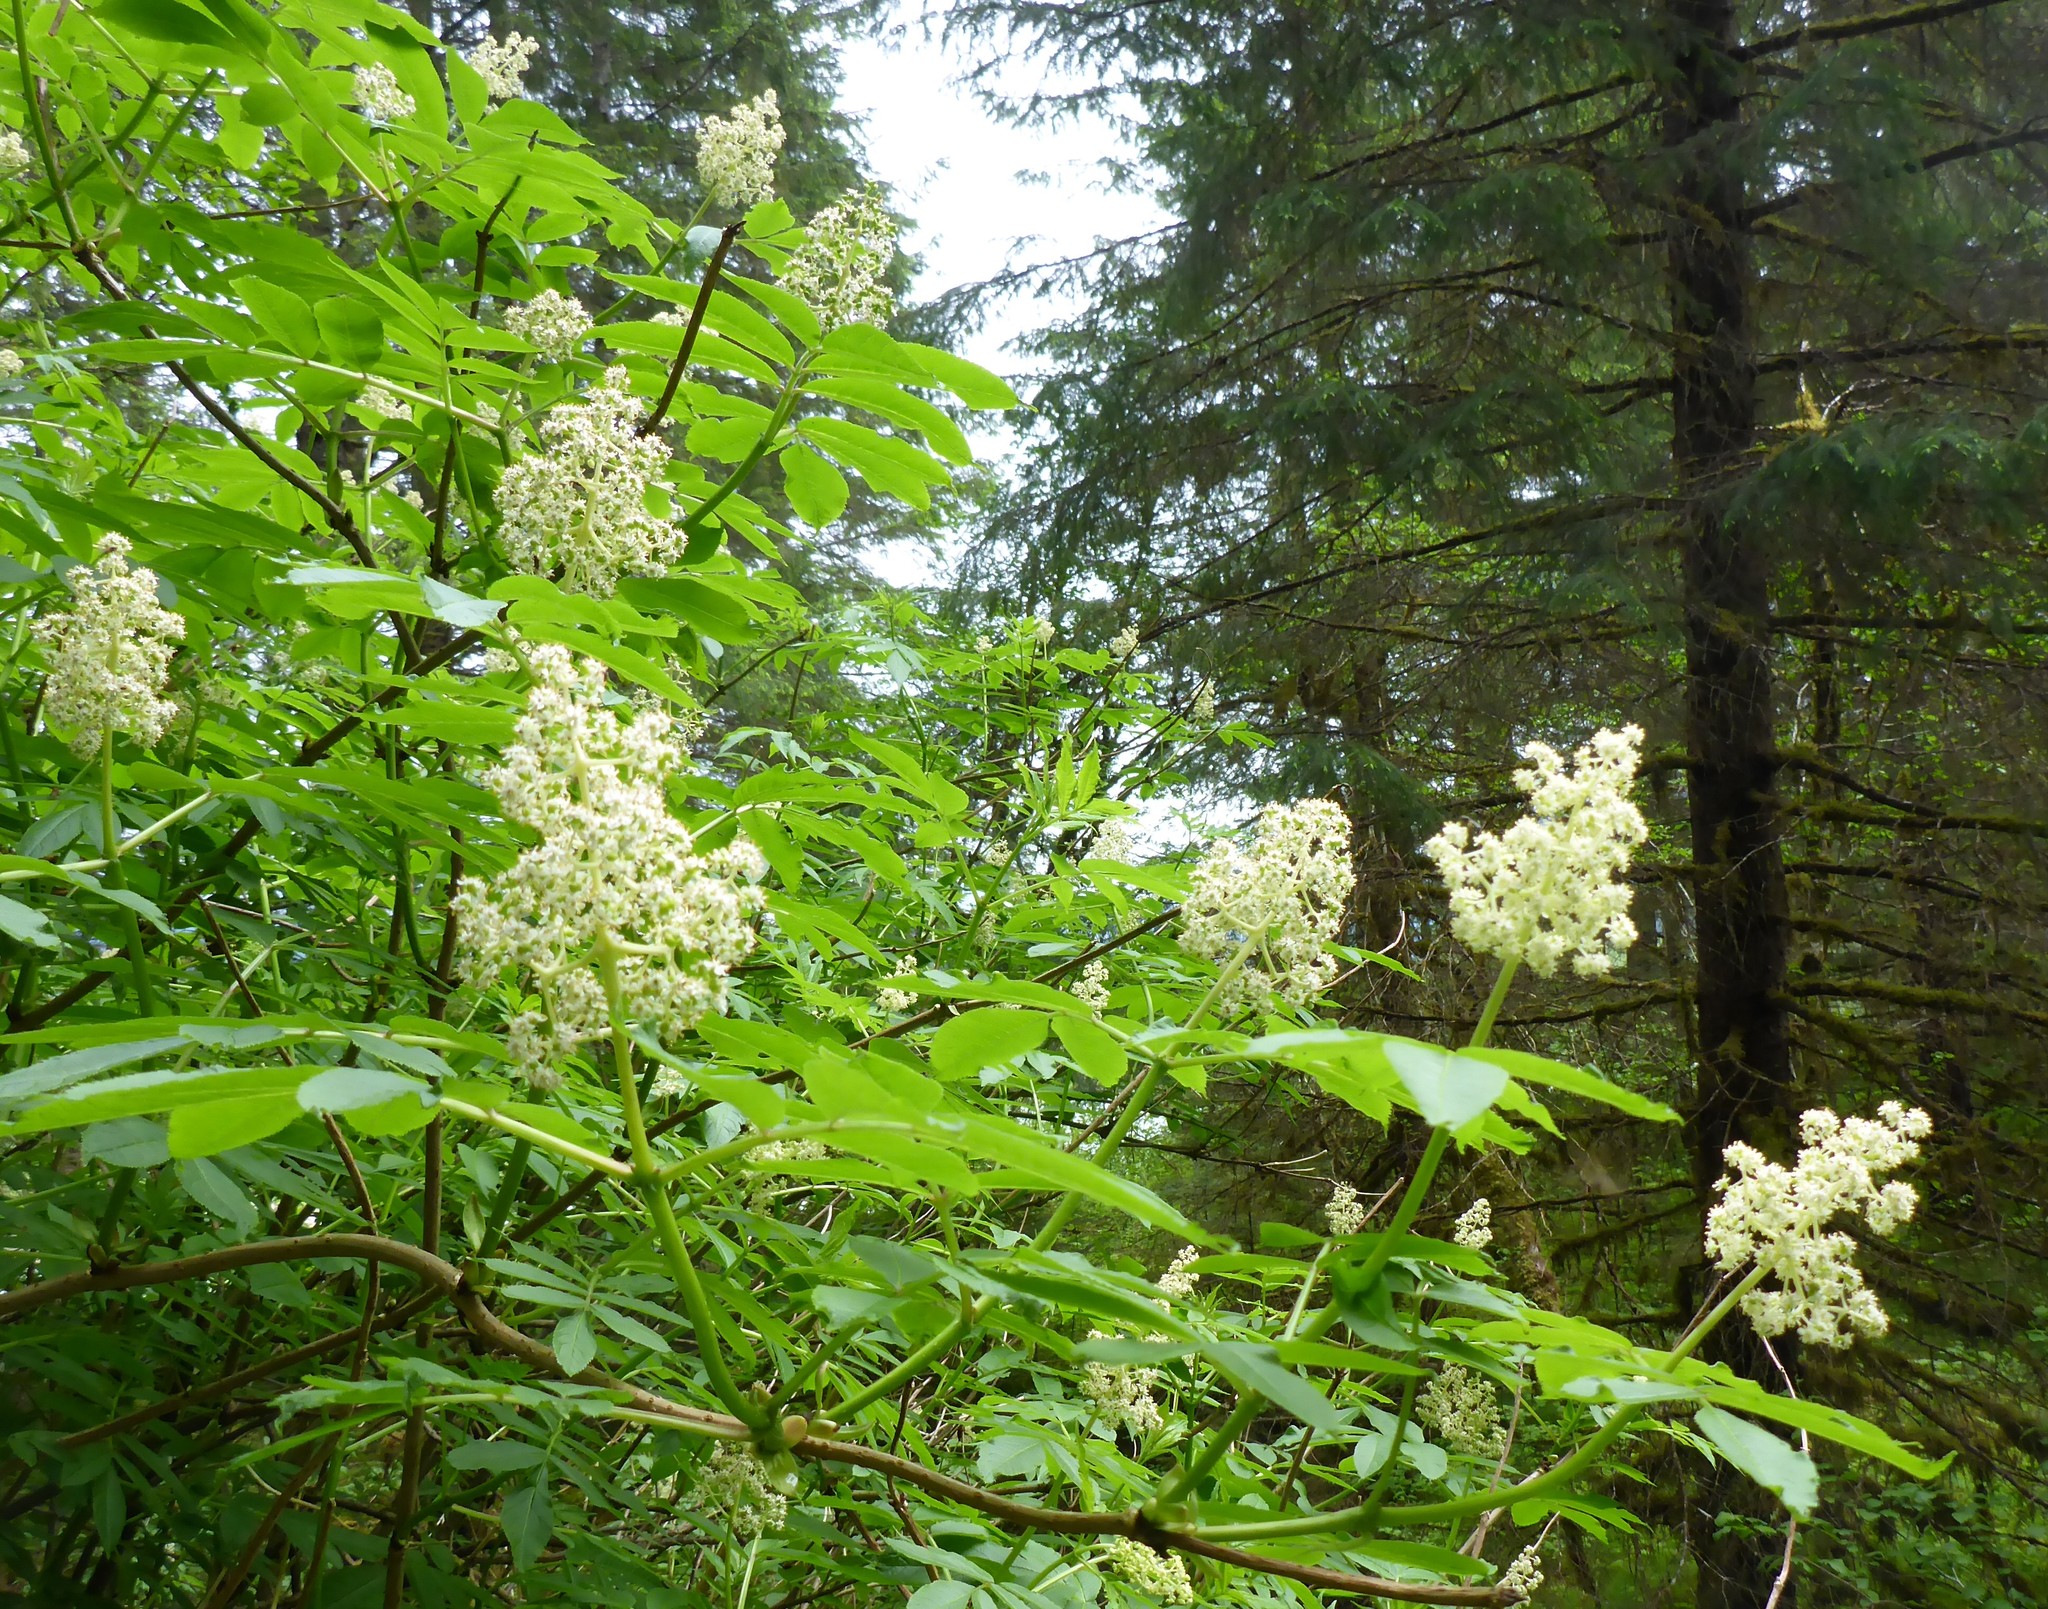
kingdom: Plantae
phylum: Tracheophyta
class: Magnoliopsida
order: Dipsacales
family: Viburnaceae
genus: Sambucus
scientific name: Sambucus racemosa
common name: Red-berried elder
